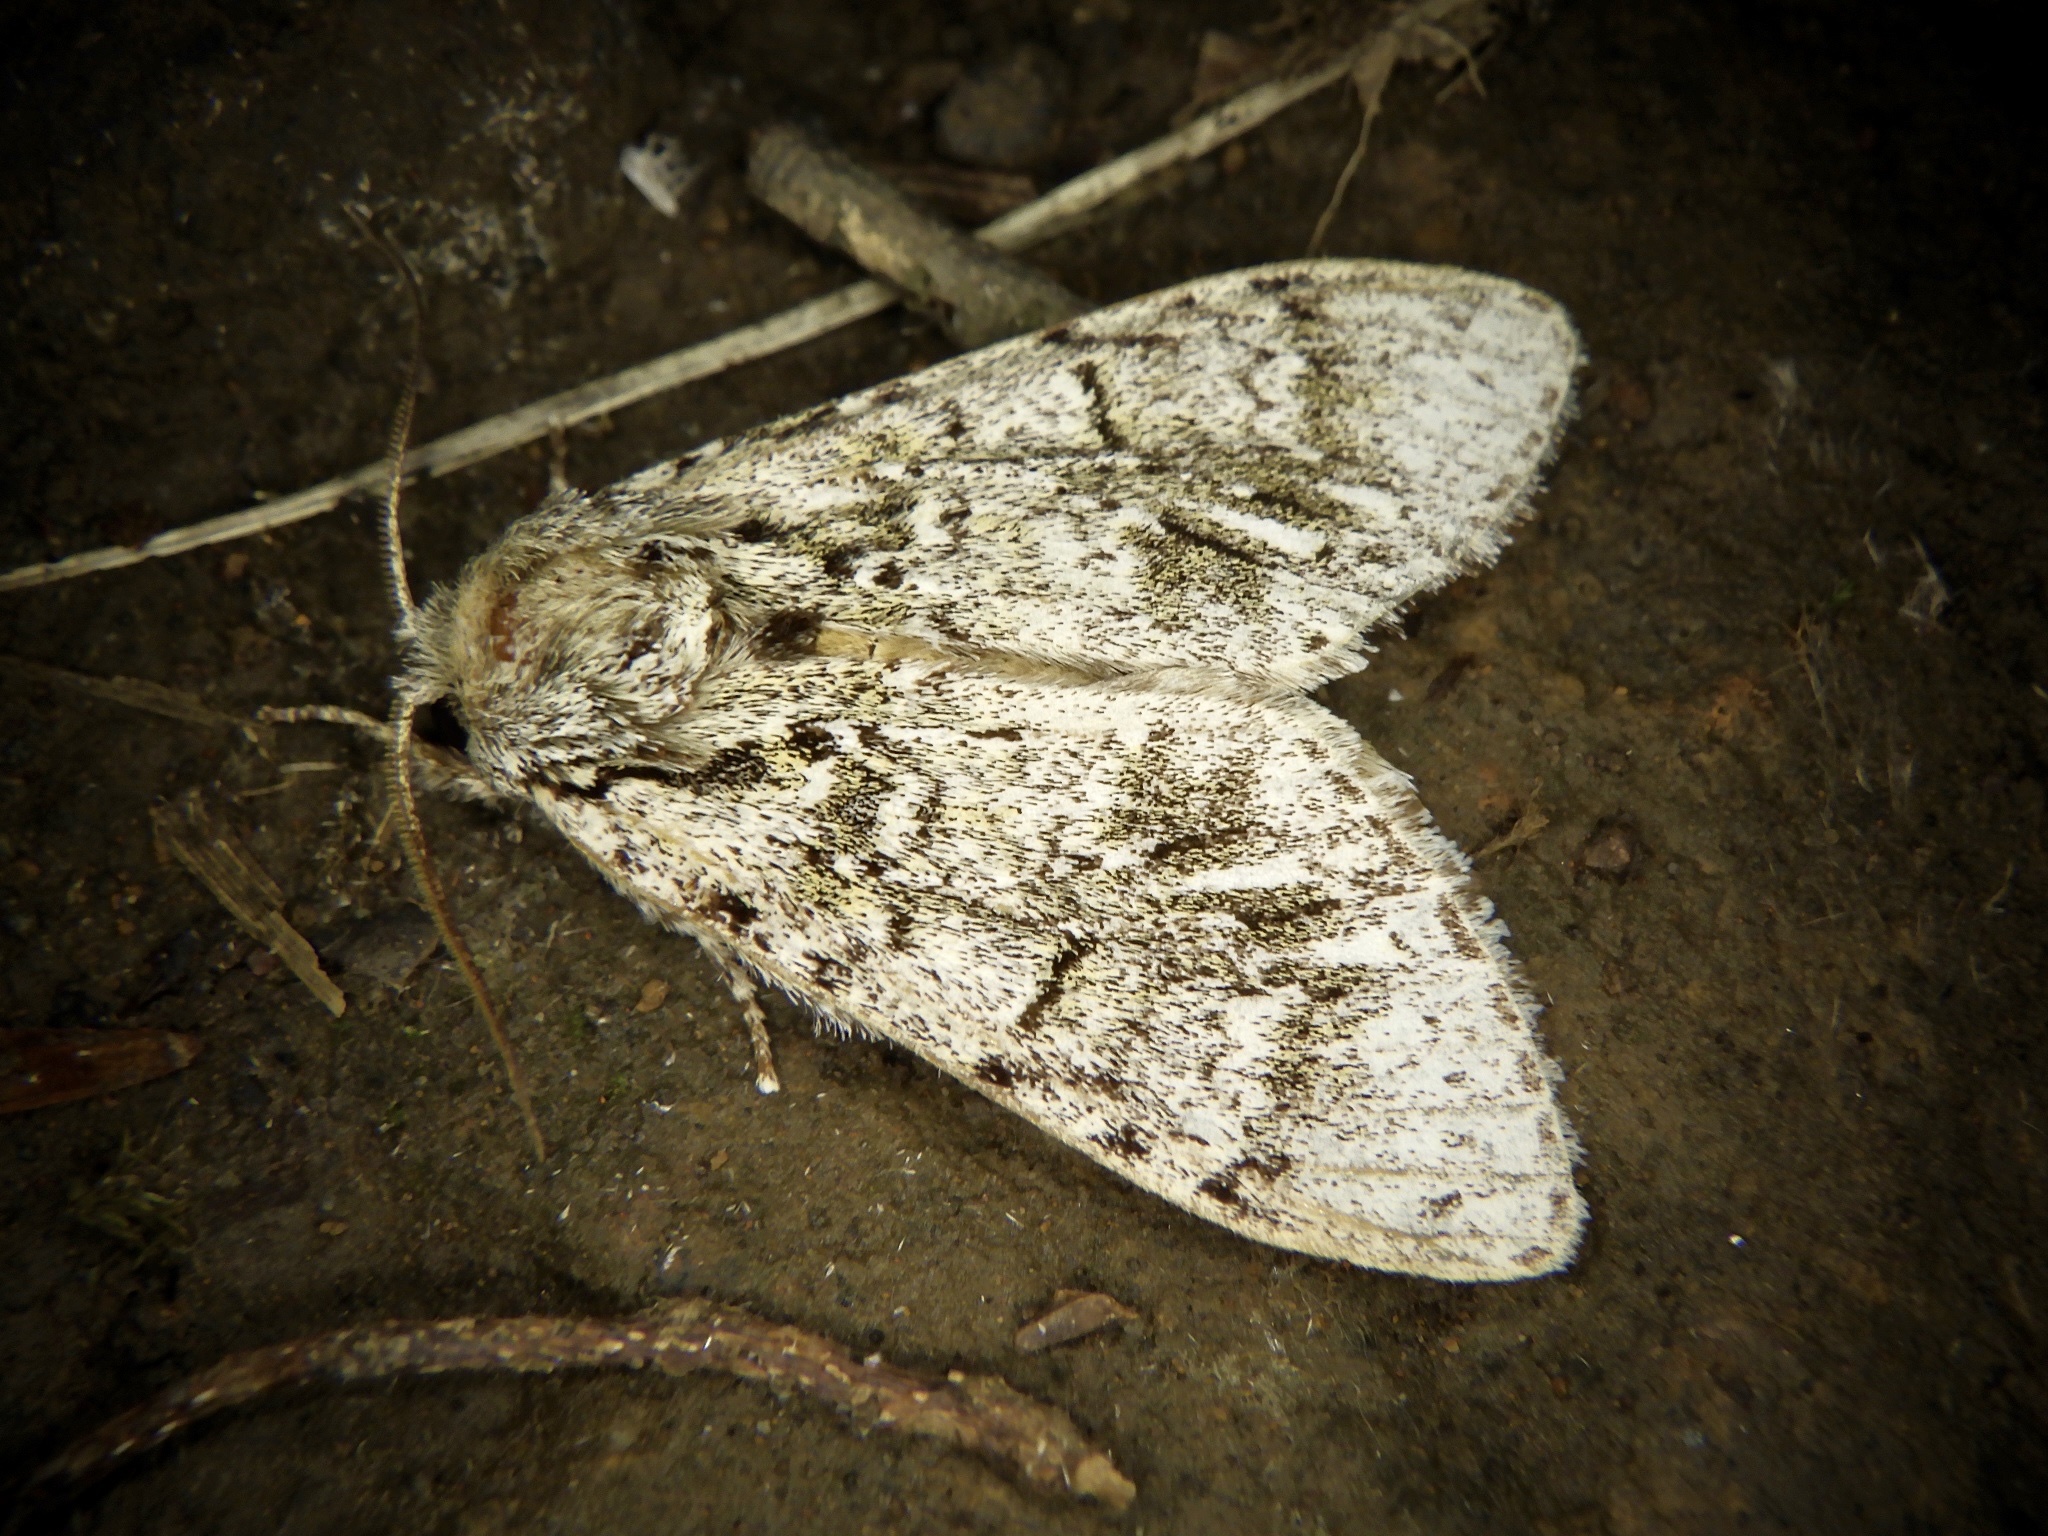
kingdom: Animalia
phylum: Arthropoda
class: Insecta
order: Lepidoptera
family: Notodontidae
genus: Pheosiopsis
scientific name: Pheosiopsis cinerea
